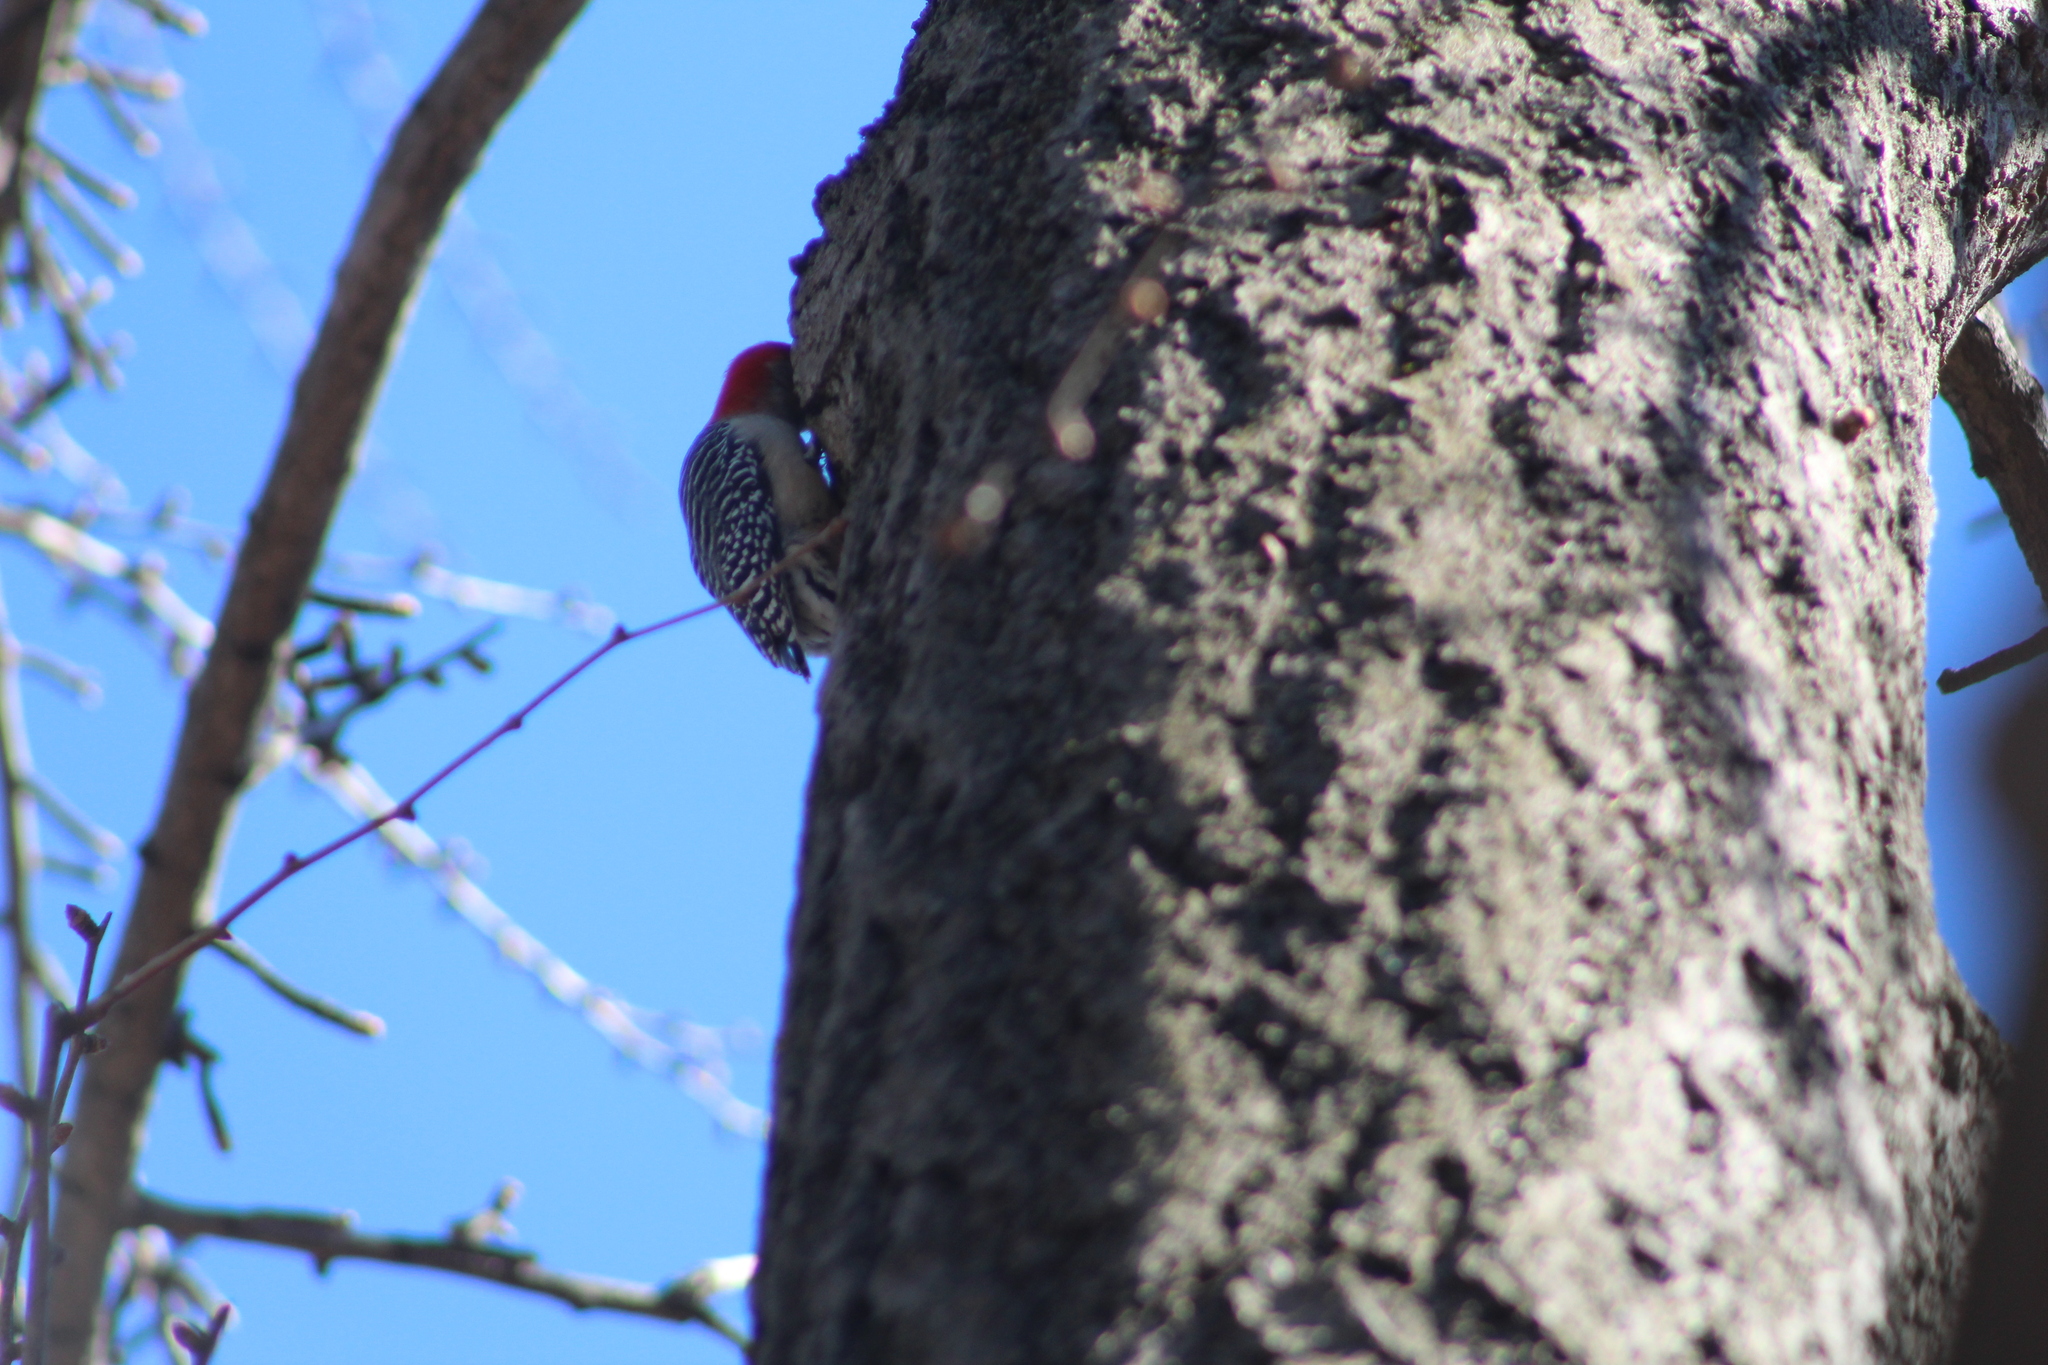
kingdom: Animalia
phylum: Chordata
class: Aves
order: Piciformes
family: Picidae
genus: Melanerpes
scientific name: Melanerpes carolinus
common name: Red-bellied woodpecker
